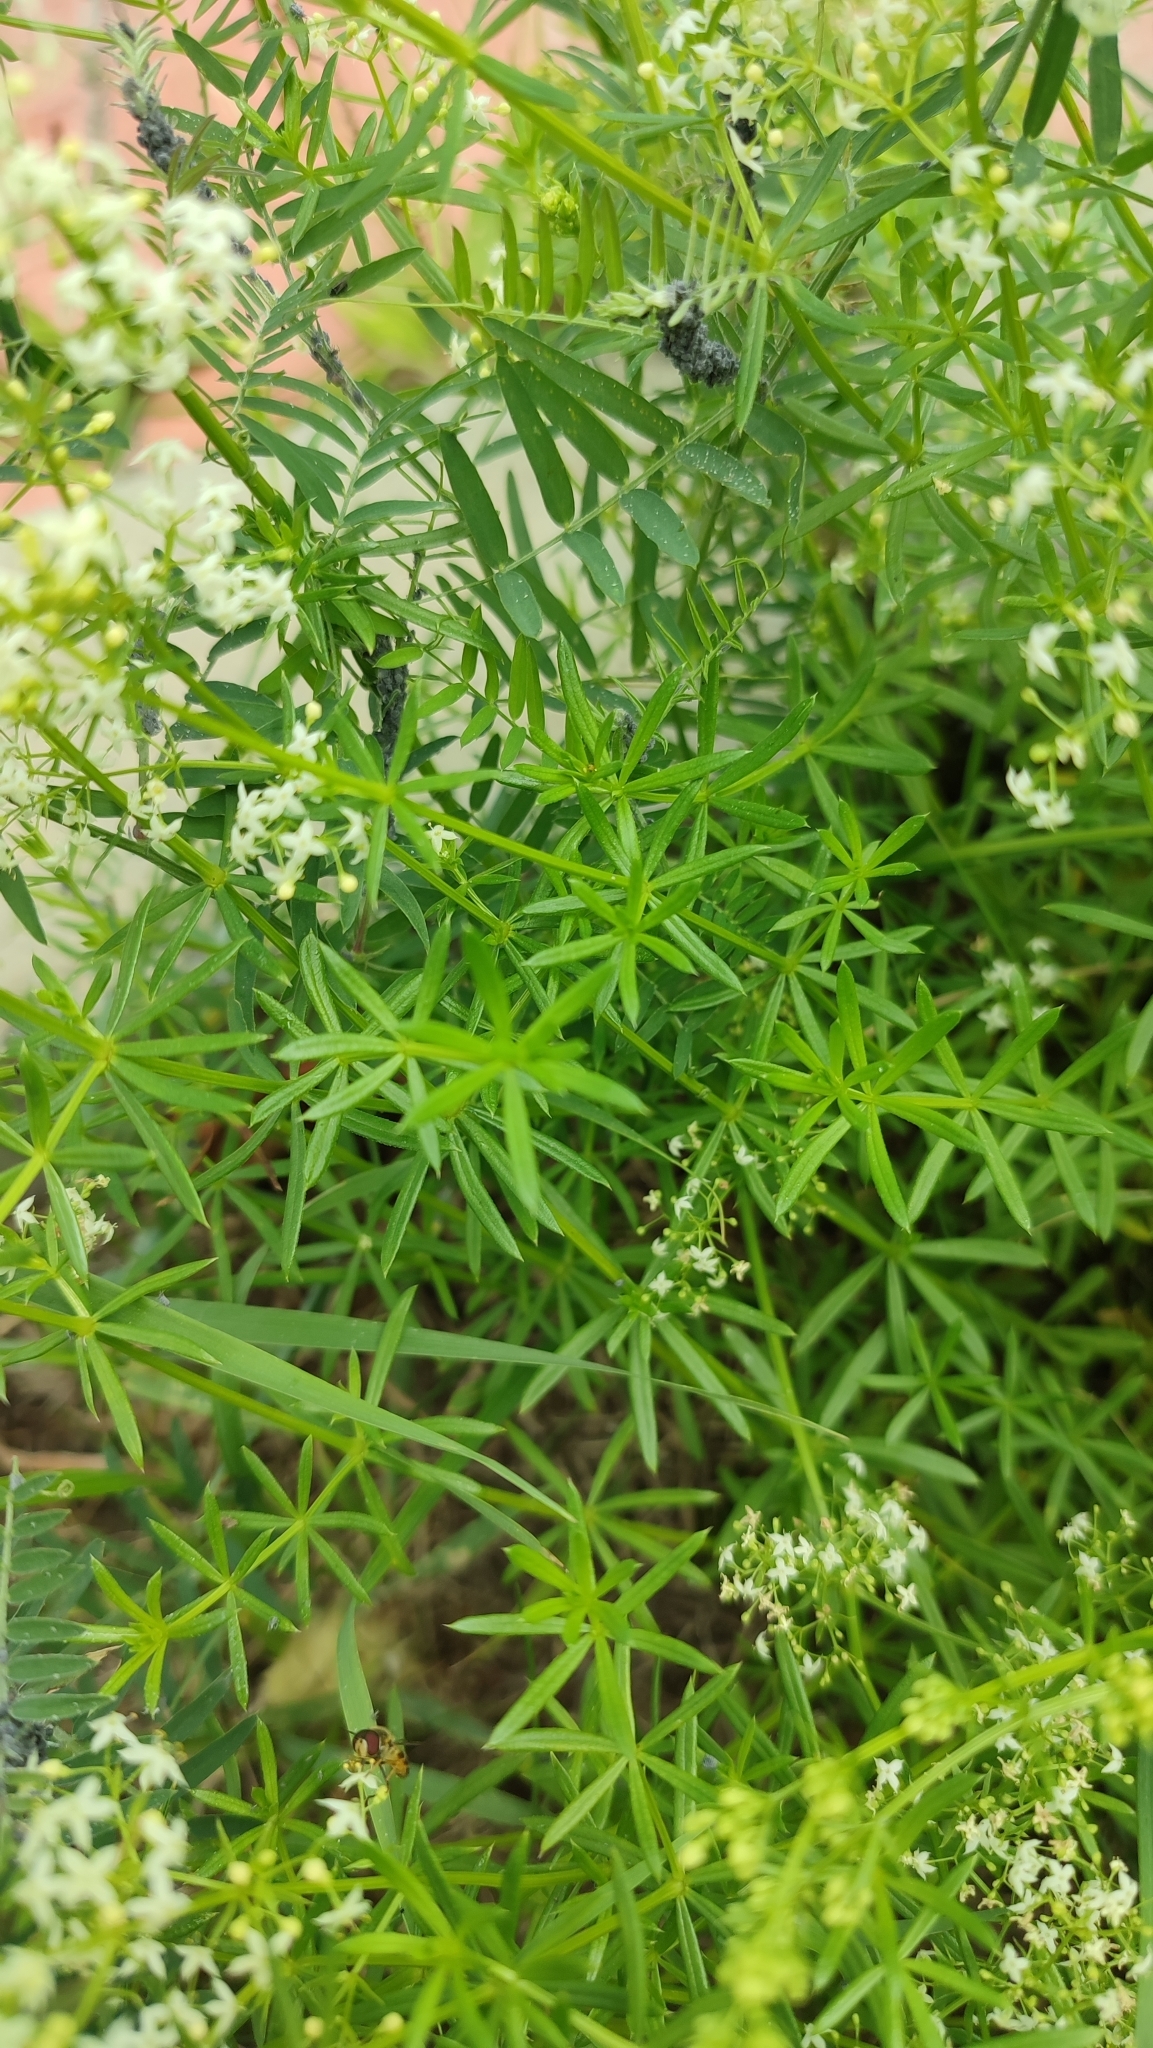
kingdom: Plantae
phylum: Tracheophyta
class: Magnoliopsida
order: Gentianales
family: Rubiaceae
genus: Galium
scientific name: Galium mollugo
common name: Hedge bedstraw
